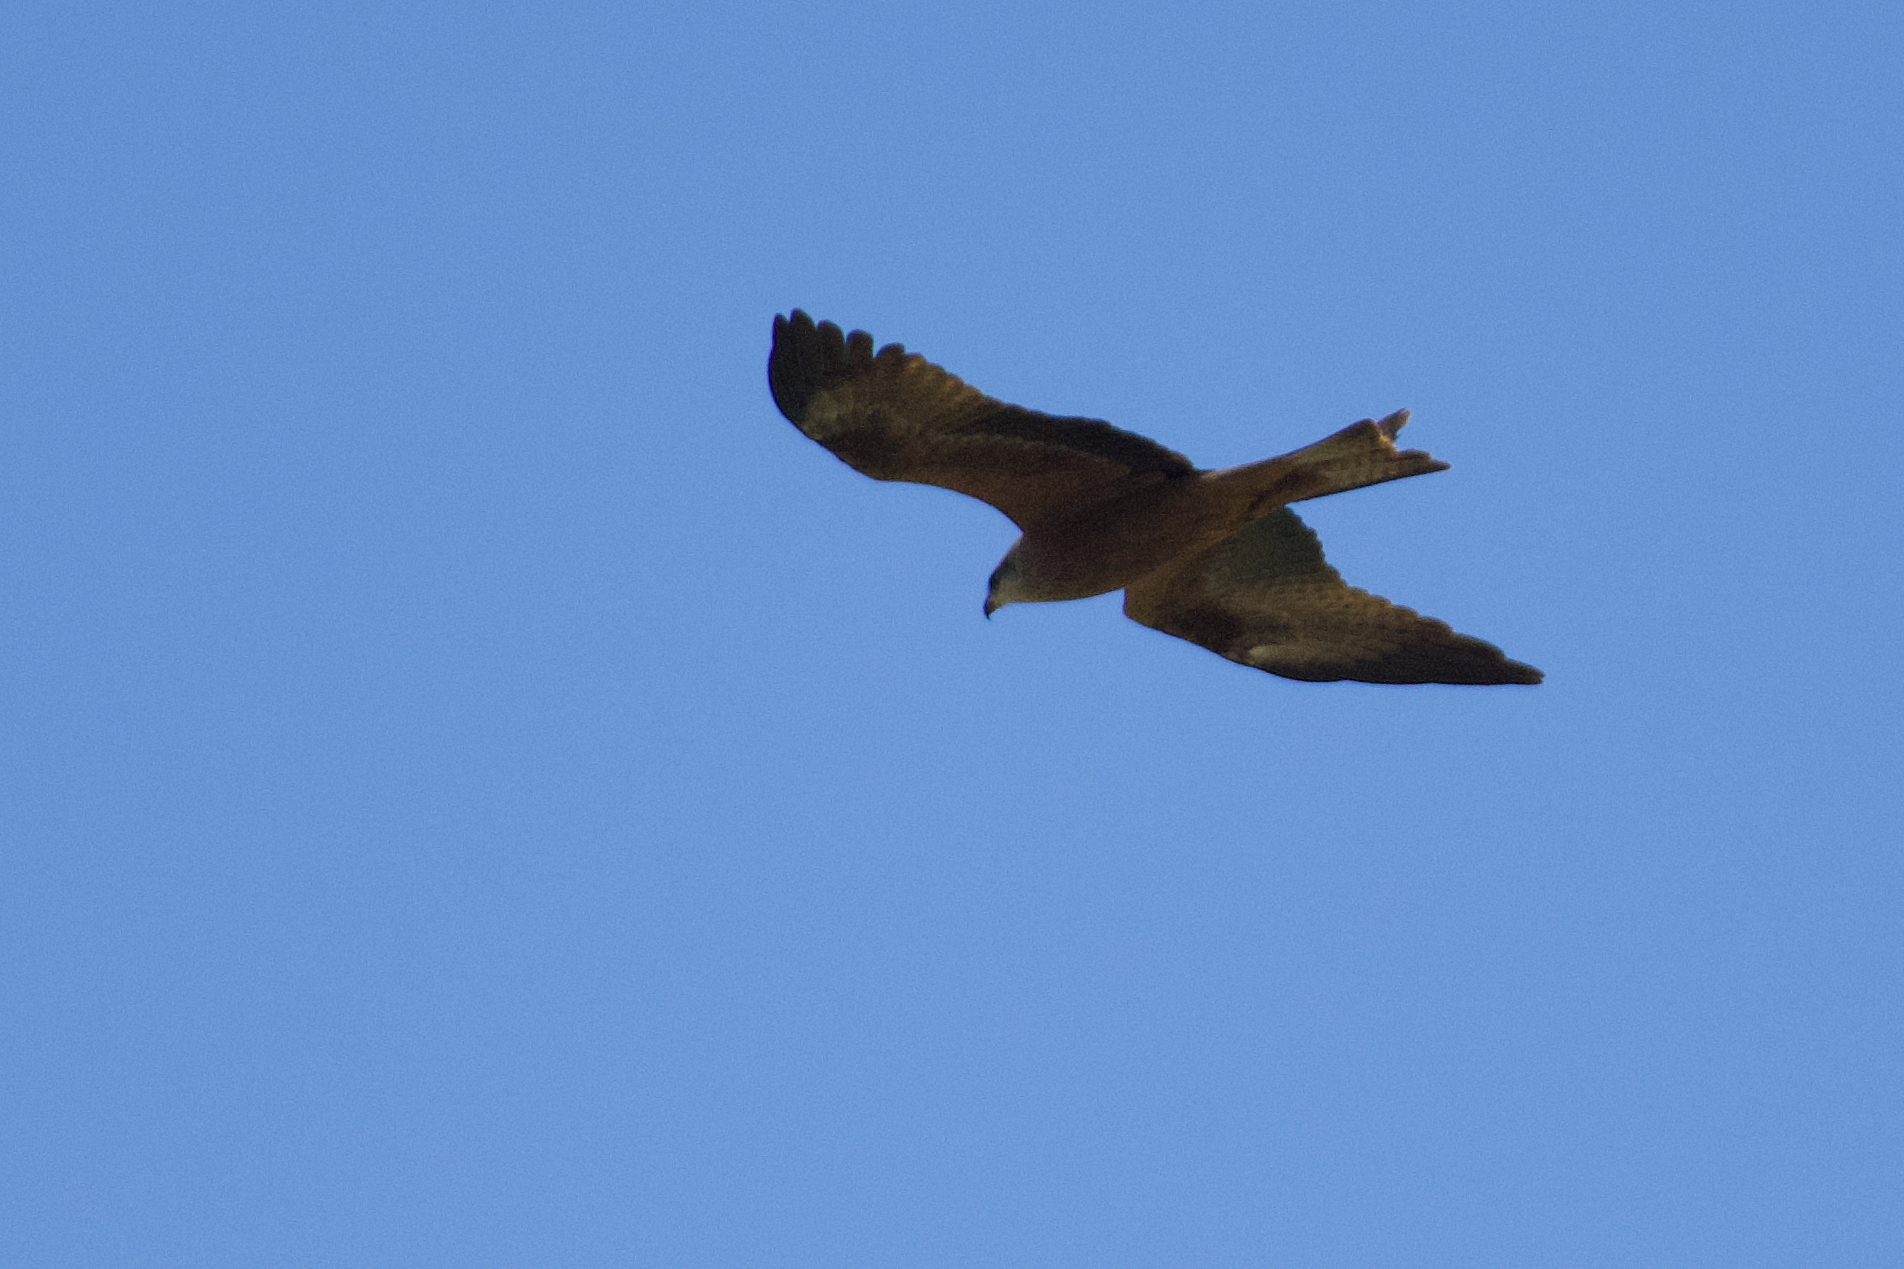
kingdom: Animalia
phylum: Chordata
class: Aves
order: Accipitriformes
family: Accipitridae
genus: Milvus
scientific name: Milvus migrans
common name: Black kite
